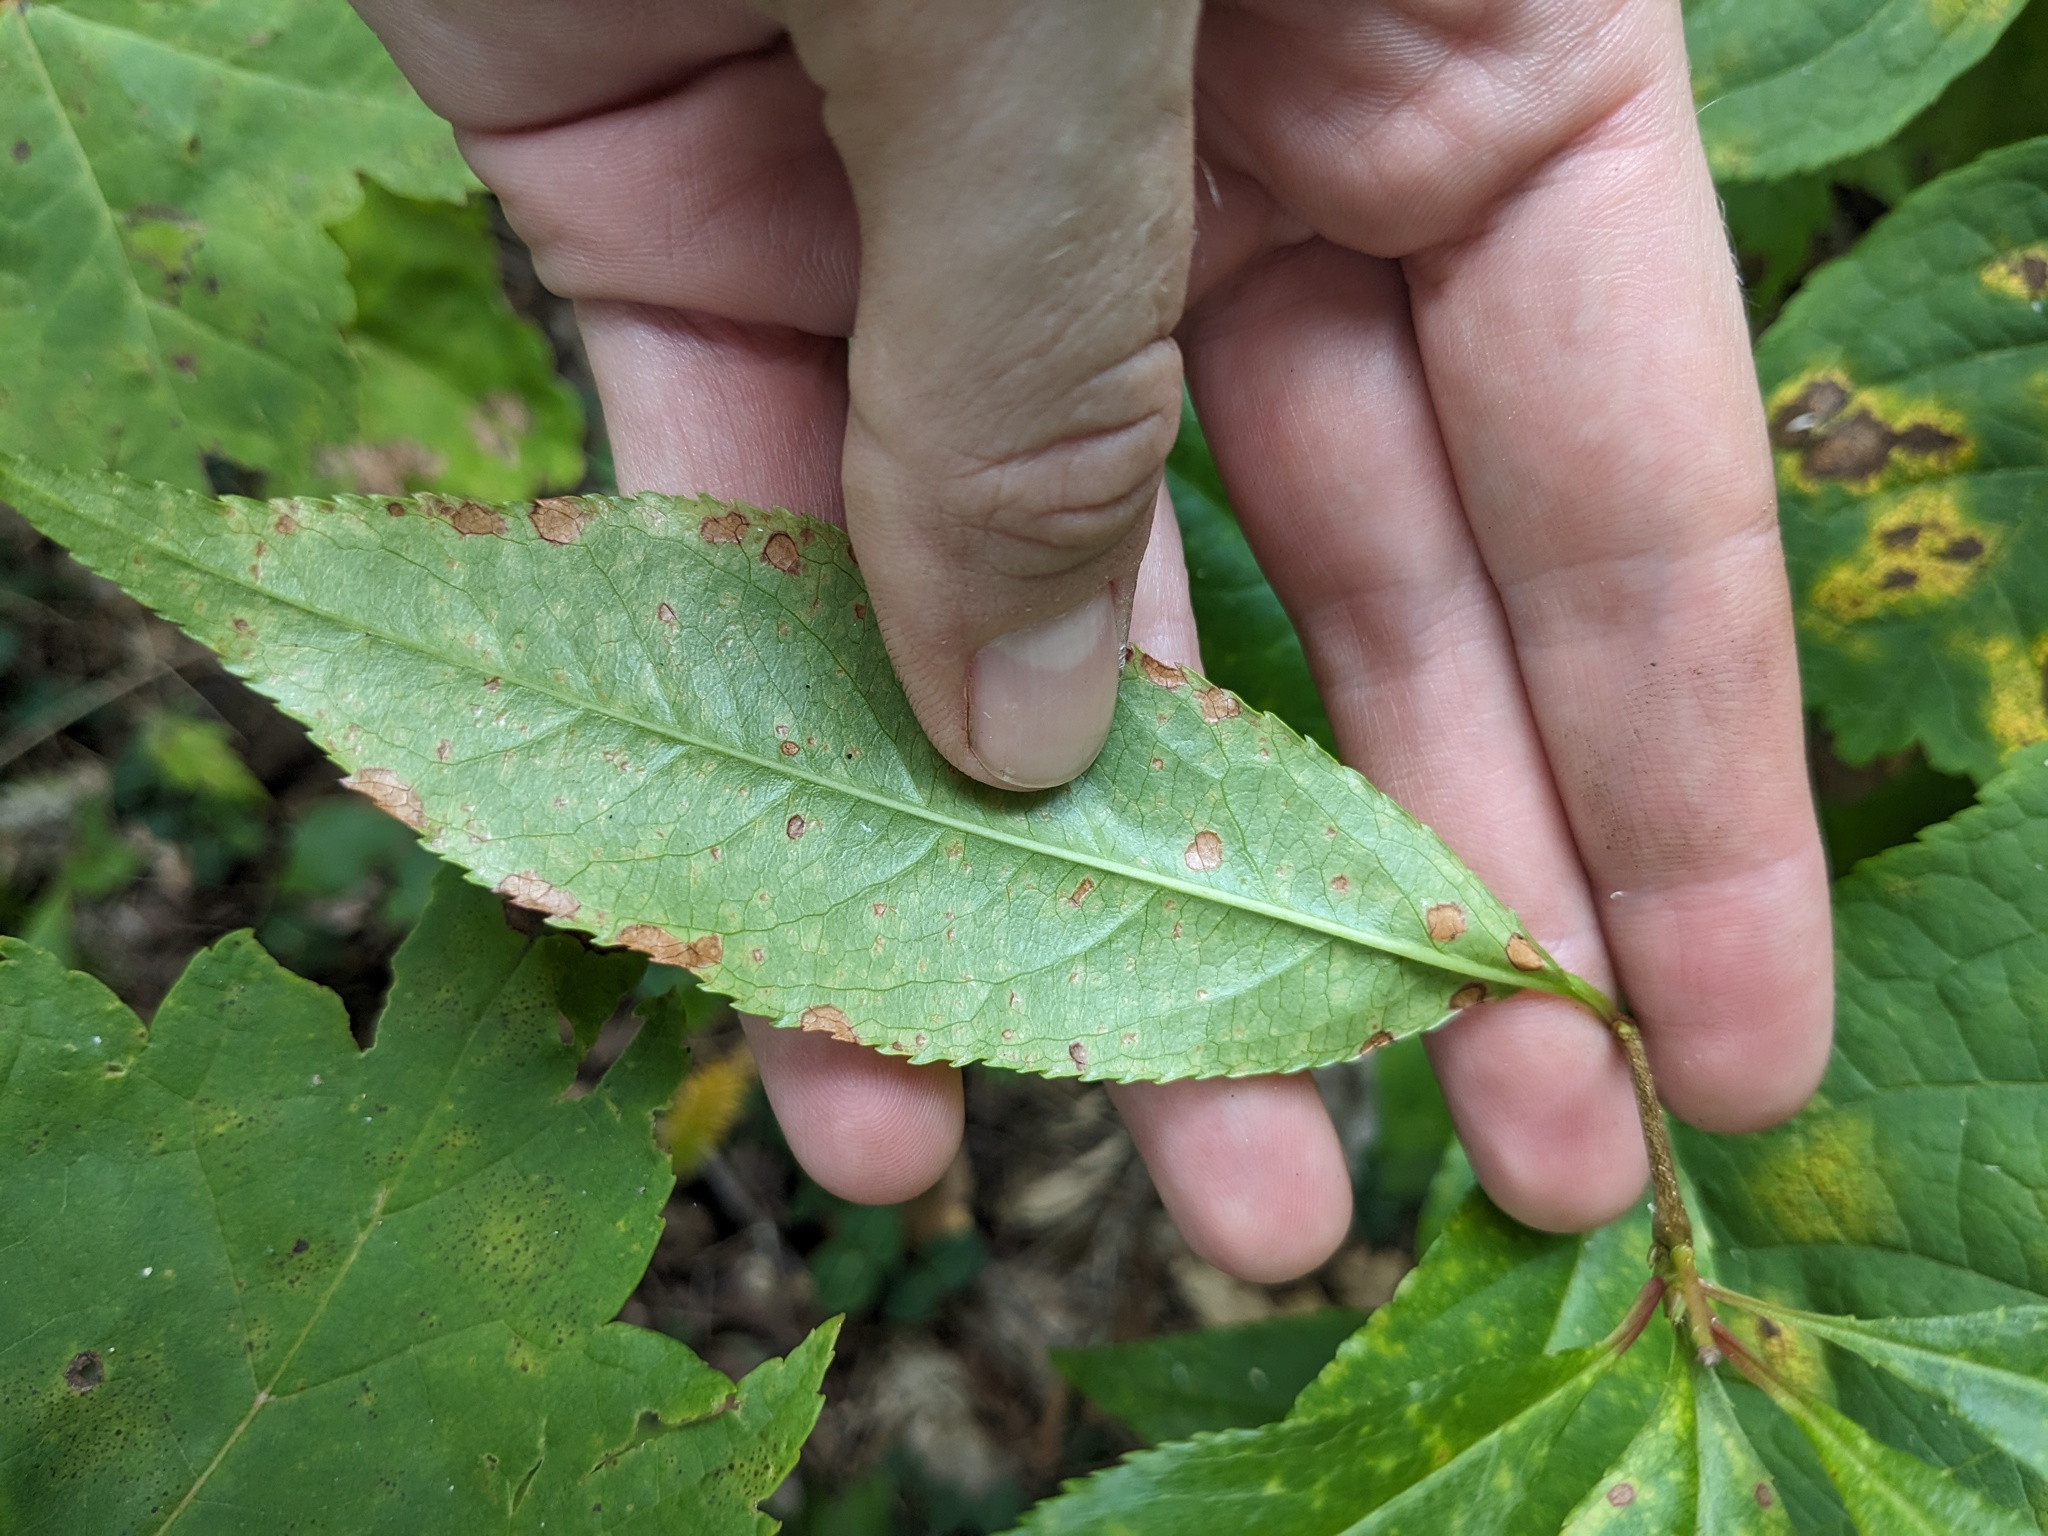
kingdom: Plantae
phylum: Tracheophyta
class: Magnoliopsida
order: Rosales
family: Rosaceae
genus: Prunus
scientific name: Prunus serotina
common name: Black cherry
